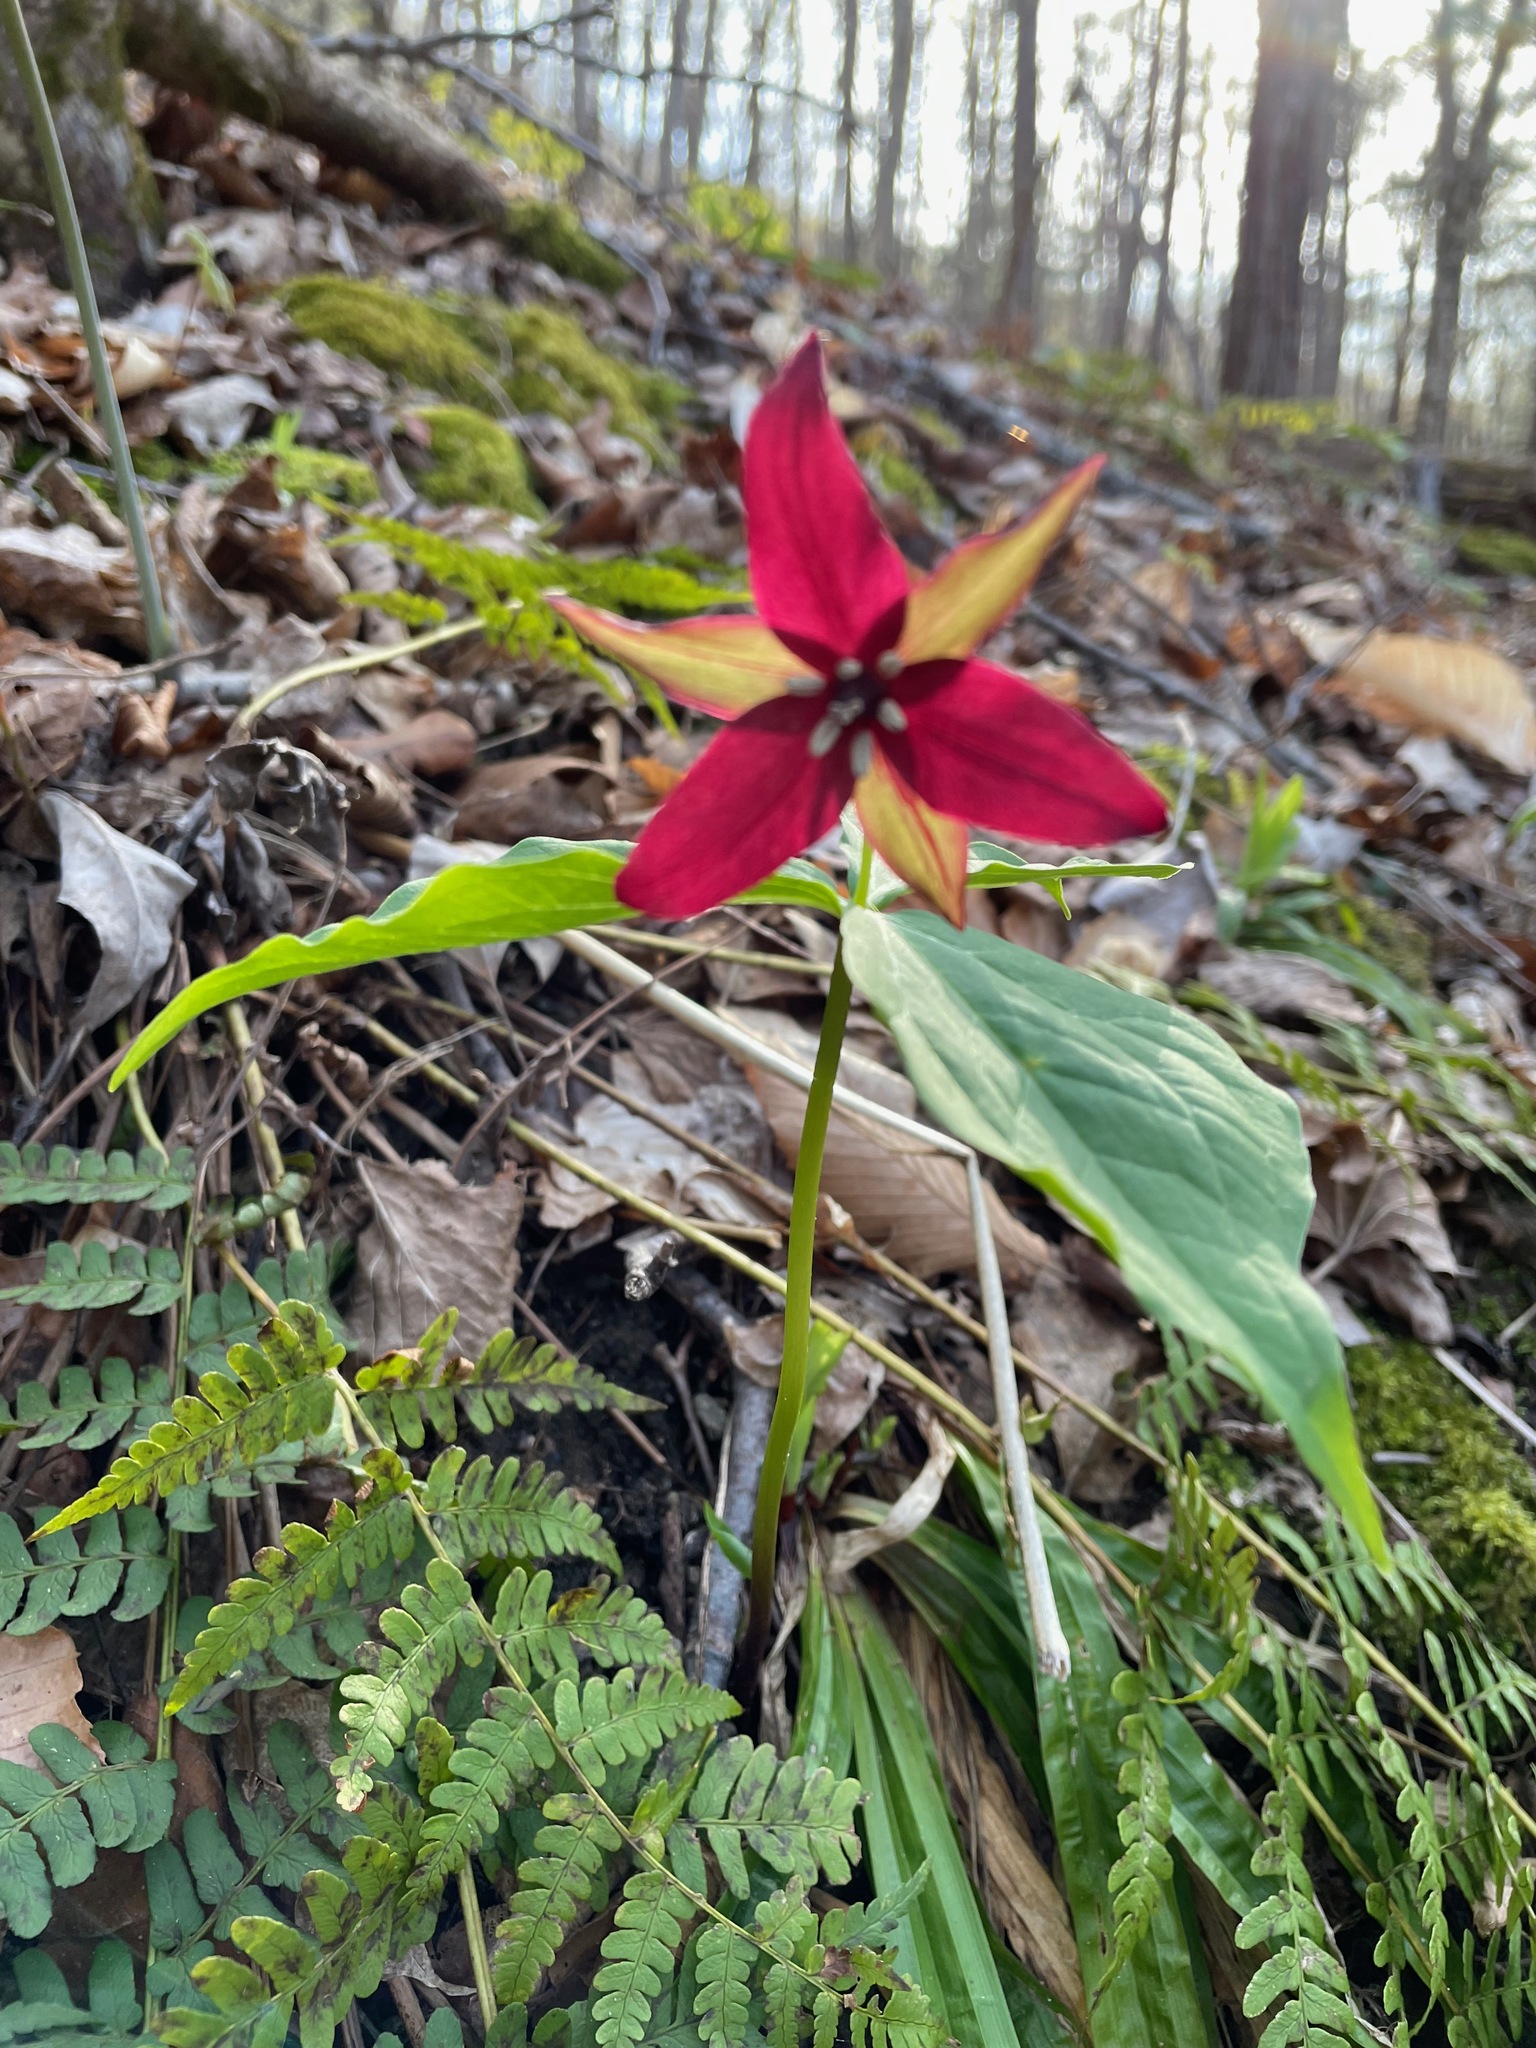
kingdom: Plantae
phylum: Tracheophyta
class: Liliopsida
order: Liliales
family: Melanthiaceae
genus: Trillium
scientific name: Trillium erectum
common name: Purple trillium
